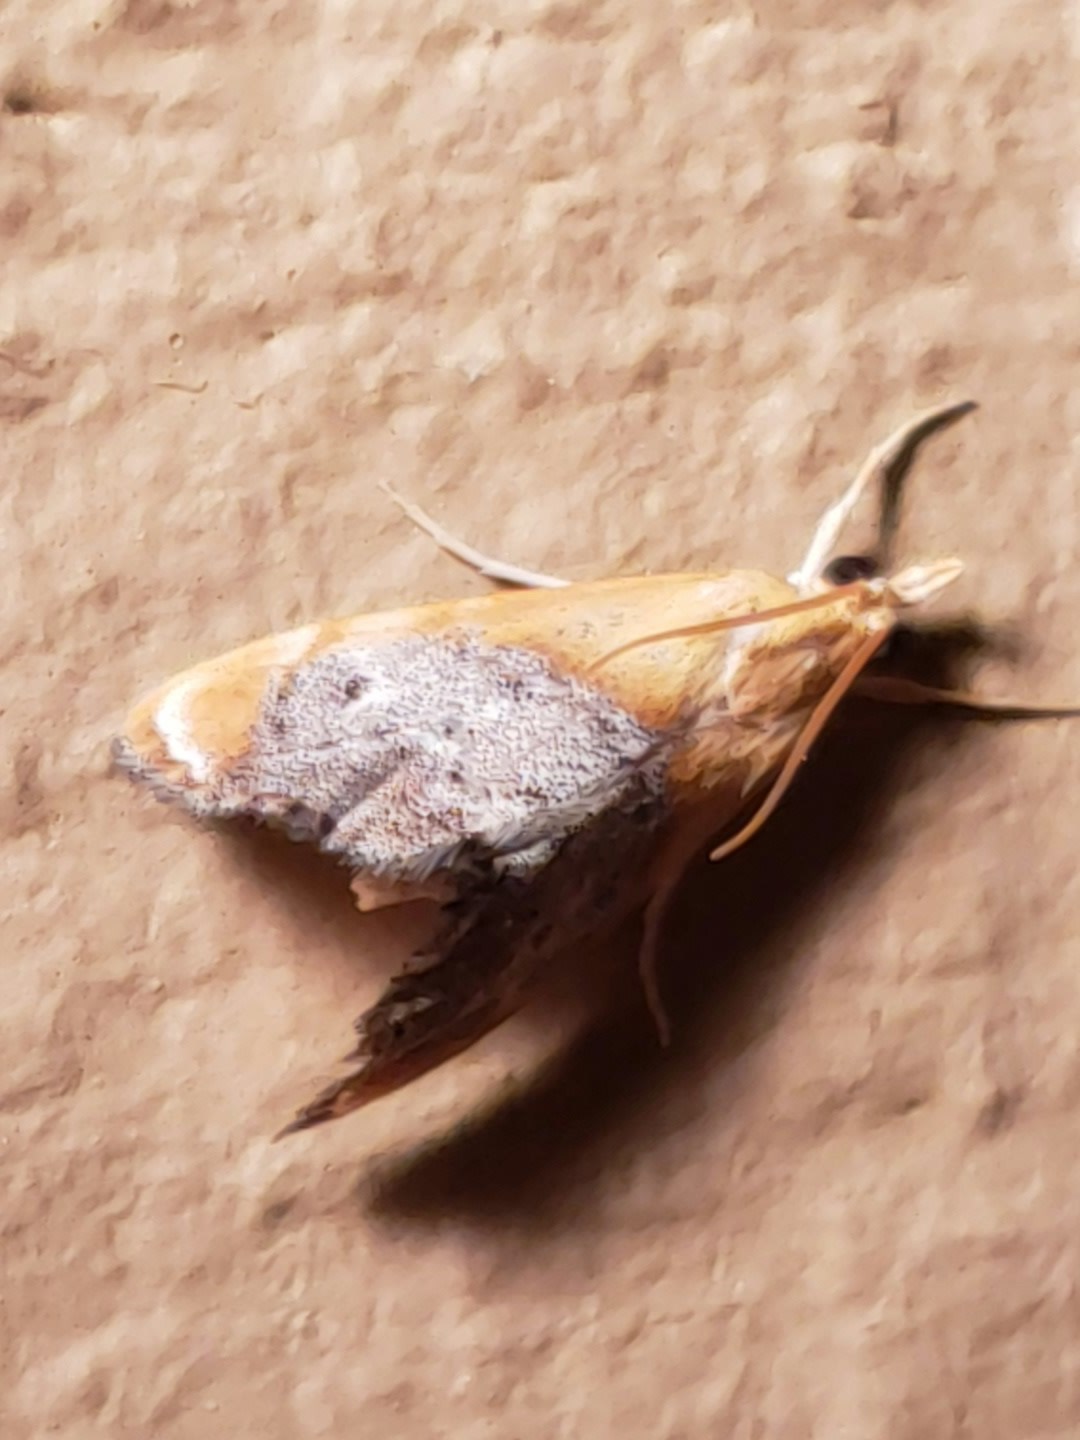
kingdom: Animalia
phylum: Arthropoda
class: Insecta
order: Lepidoptera
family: Crambidae
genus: Chalcoela
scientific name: Chalcoela iphitalis
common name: Sooty-winged chalcoela moth
